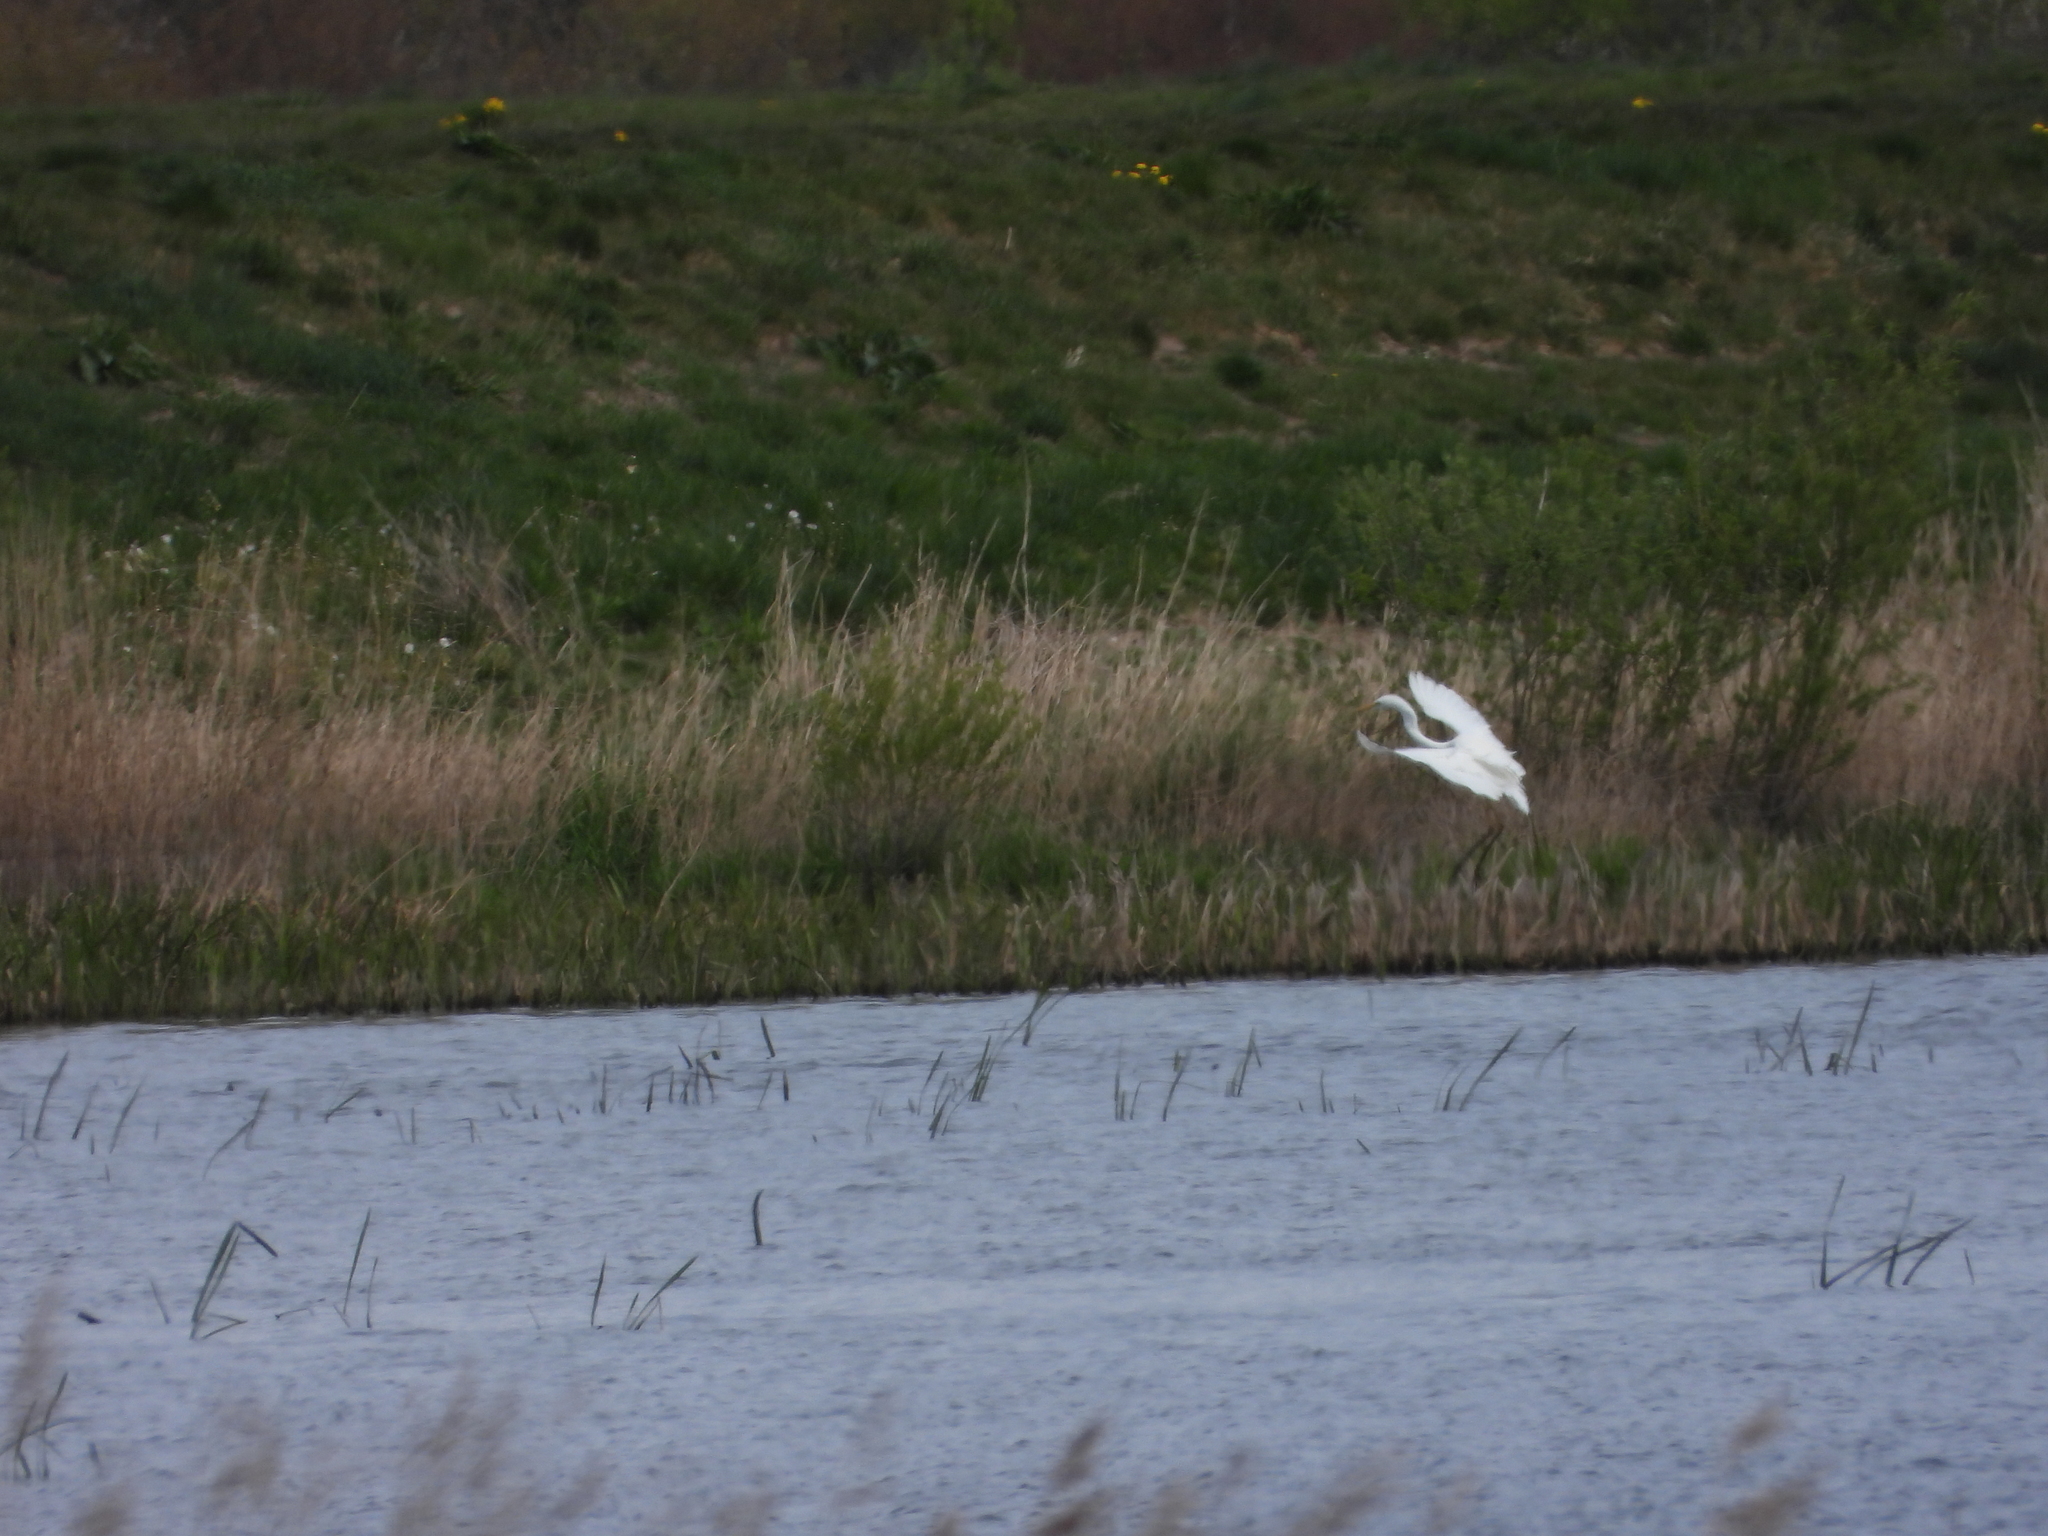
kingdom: Animalia
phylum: Chordata
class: Aves
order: Pelecaniformes
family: Ardeidae
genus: Ardea
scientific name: Ardea alba
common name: Great egret
